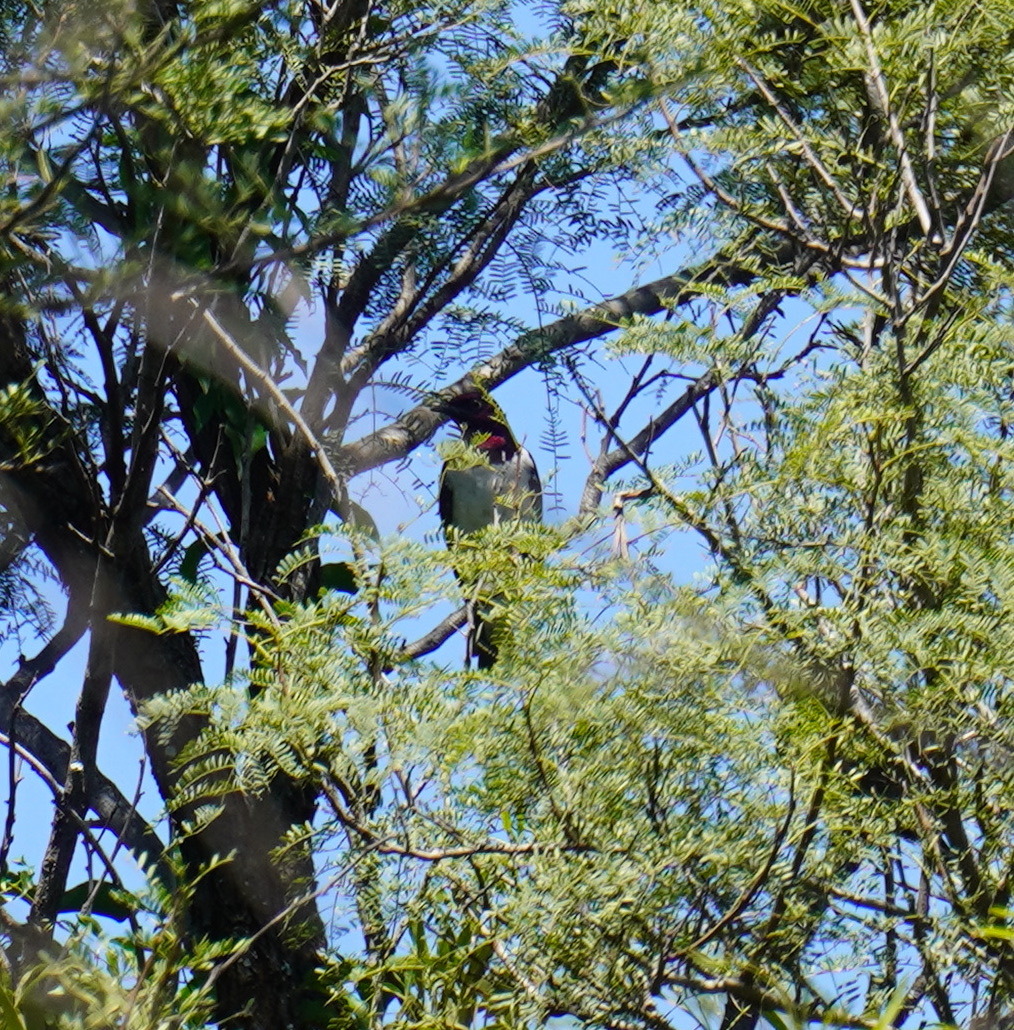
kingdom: Animalia
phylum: Chordata
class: Aves
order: Passeriformes
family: Sturnidae
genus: Cinnyricinclus
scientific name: Cinnyricinclus leucogaster
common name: Violet-backed starling
